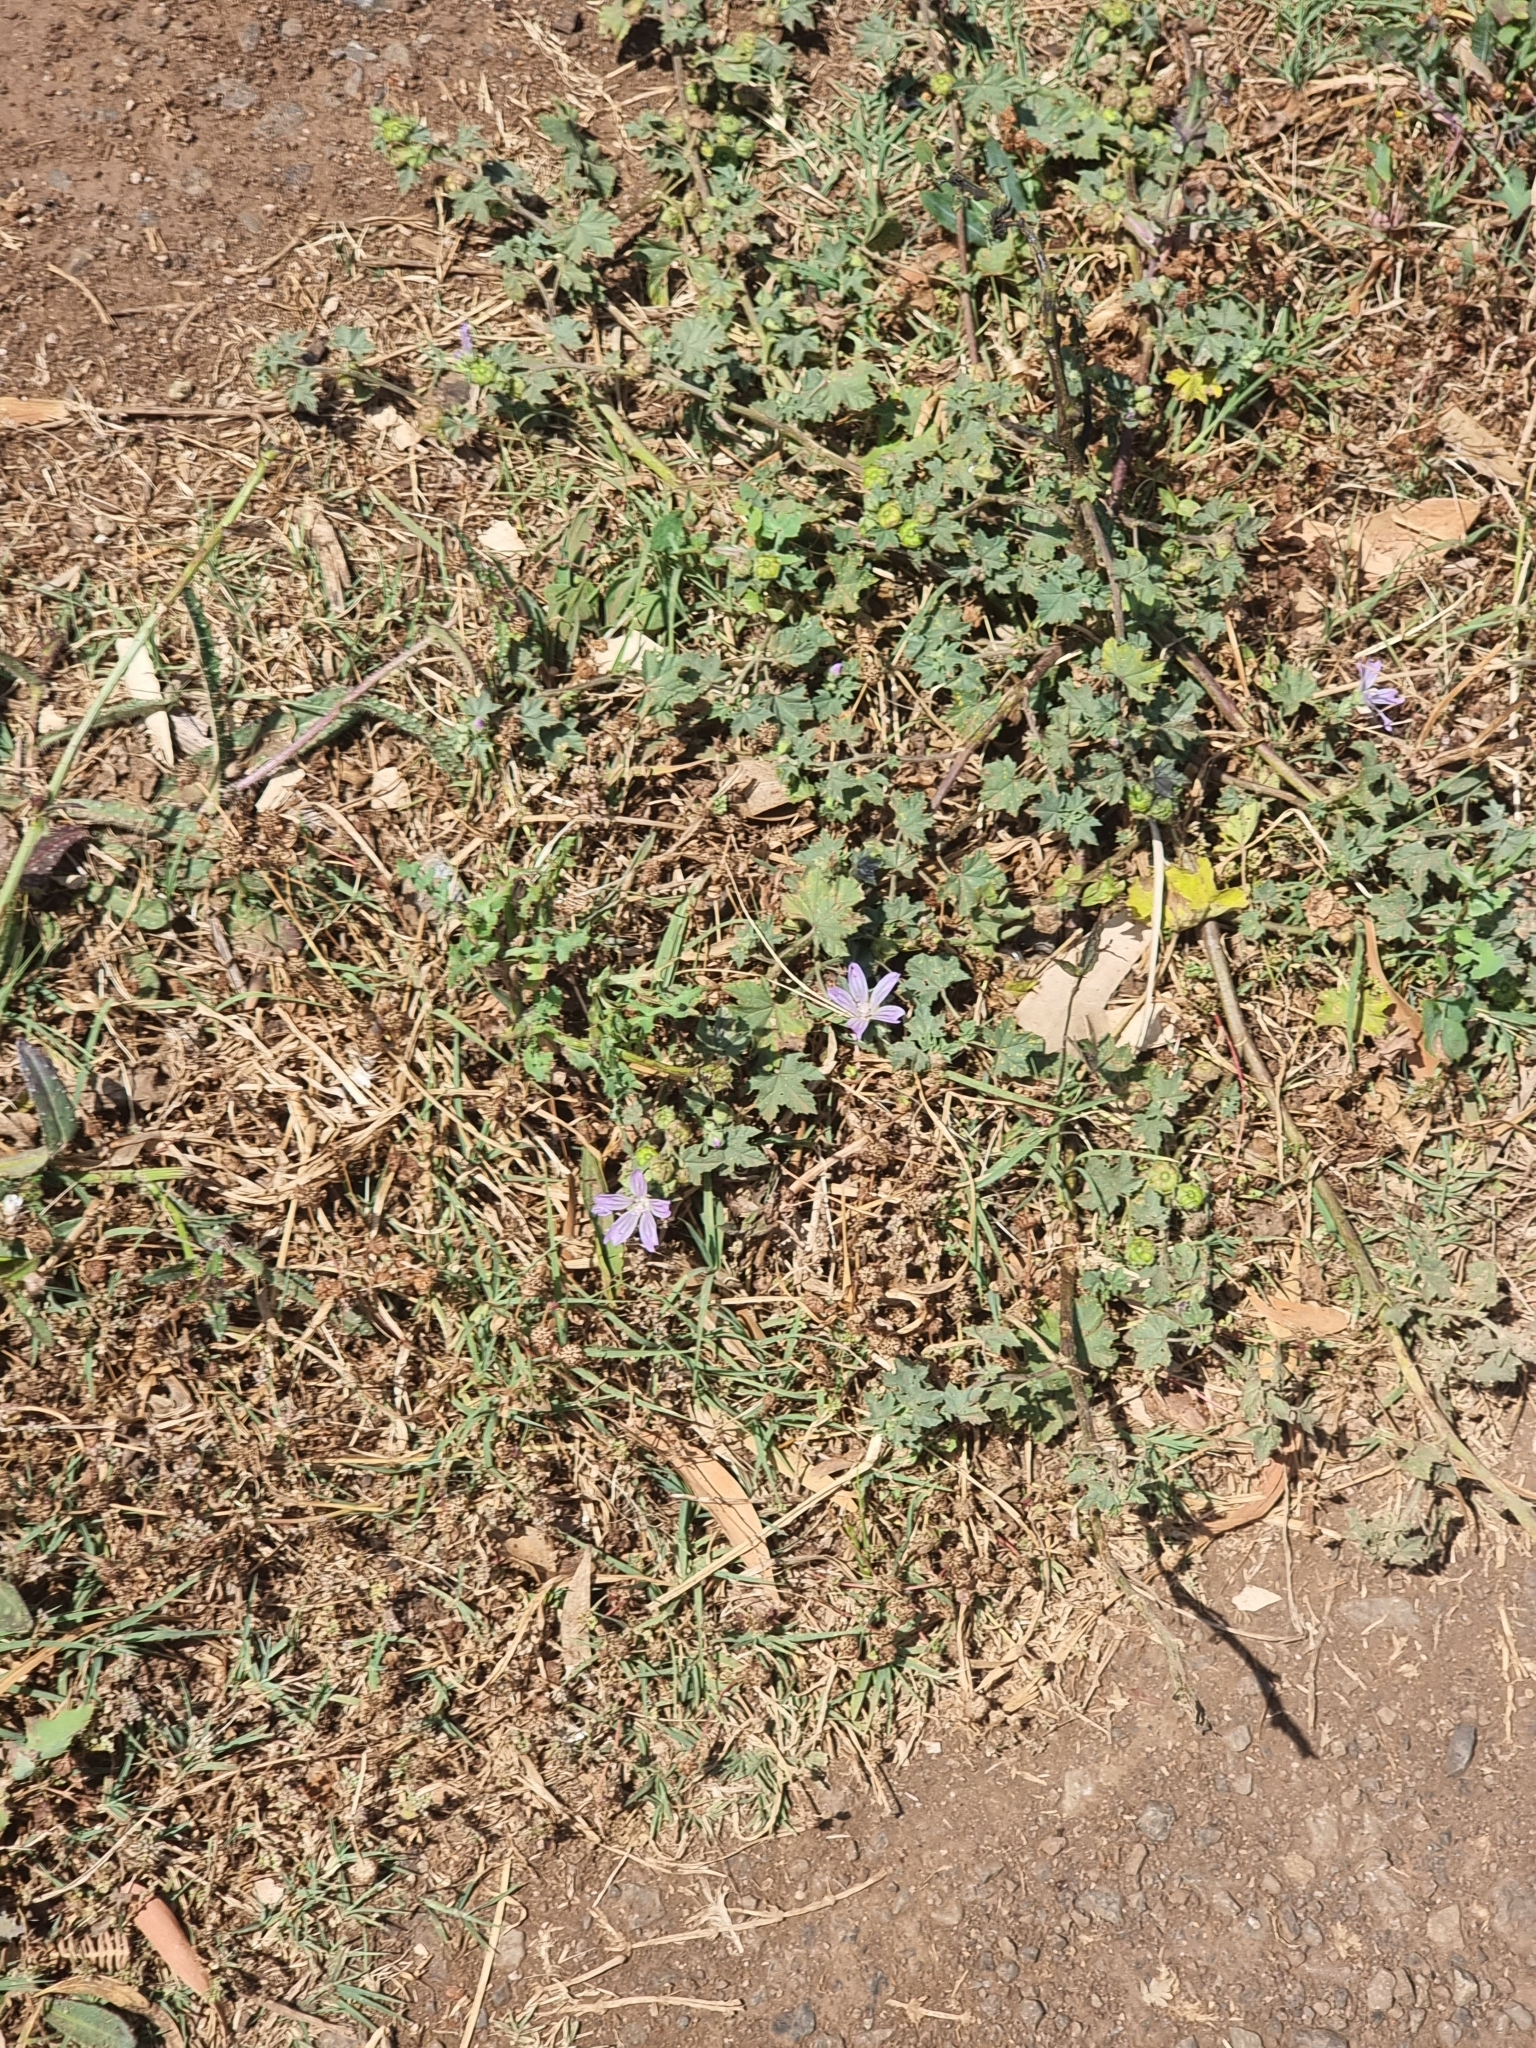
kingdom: Plantae
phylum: Tracheophyta
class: Magnoliopsida
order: Malvales
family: Malvaceae
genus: Malva
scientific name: Malva multiflora
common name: Cheeseweed
